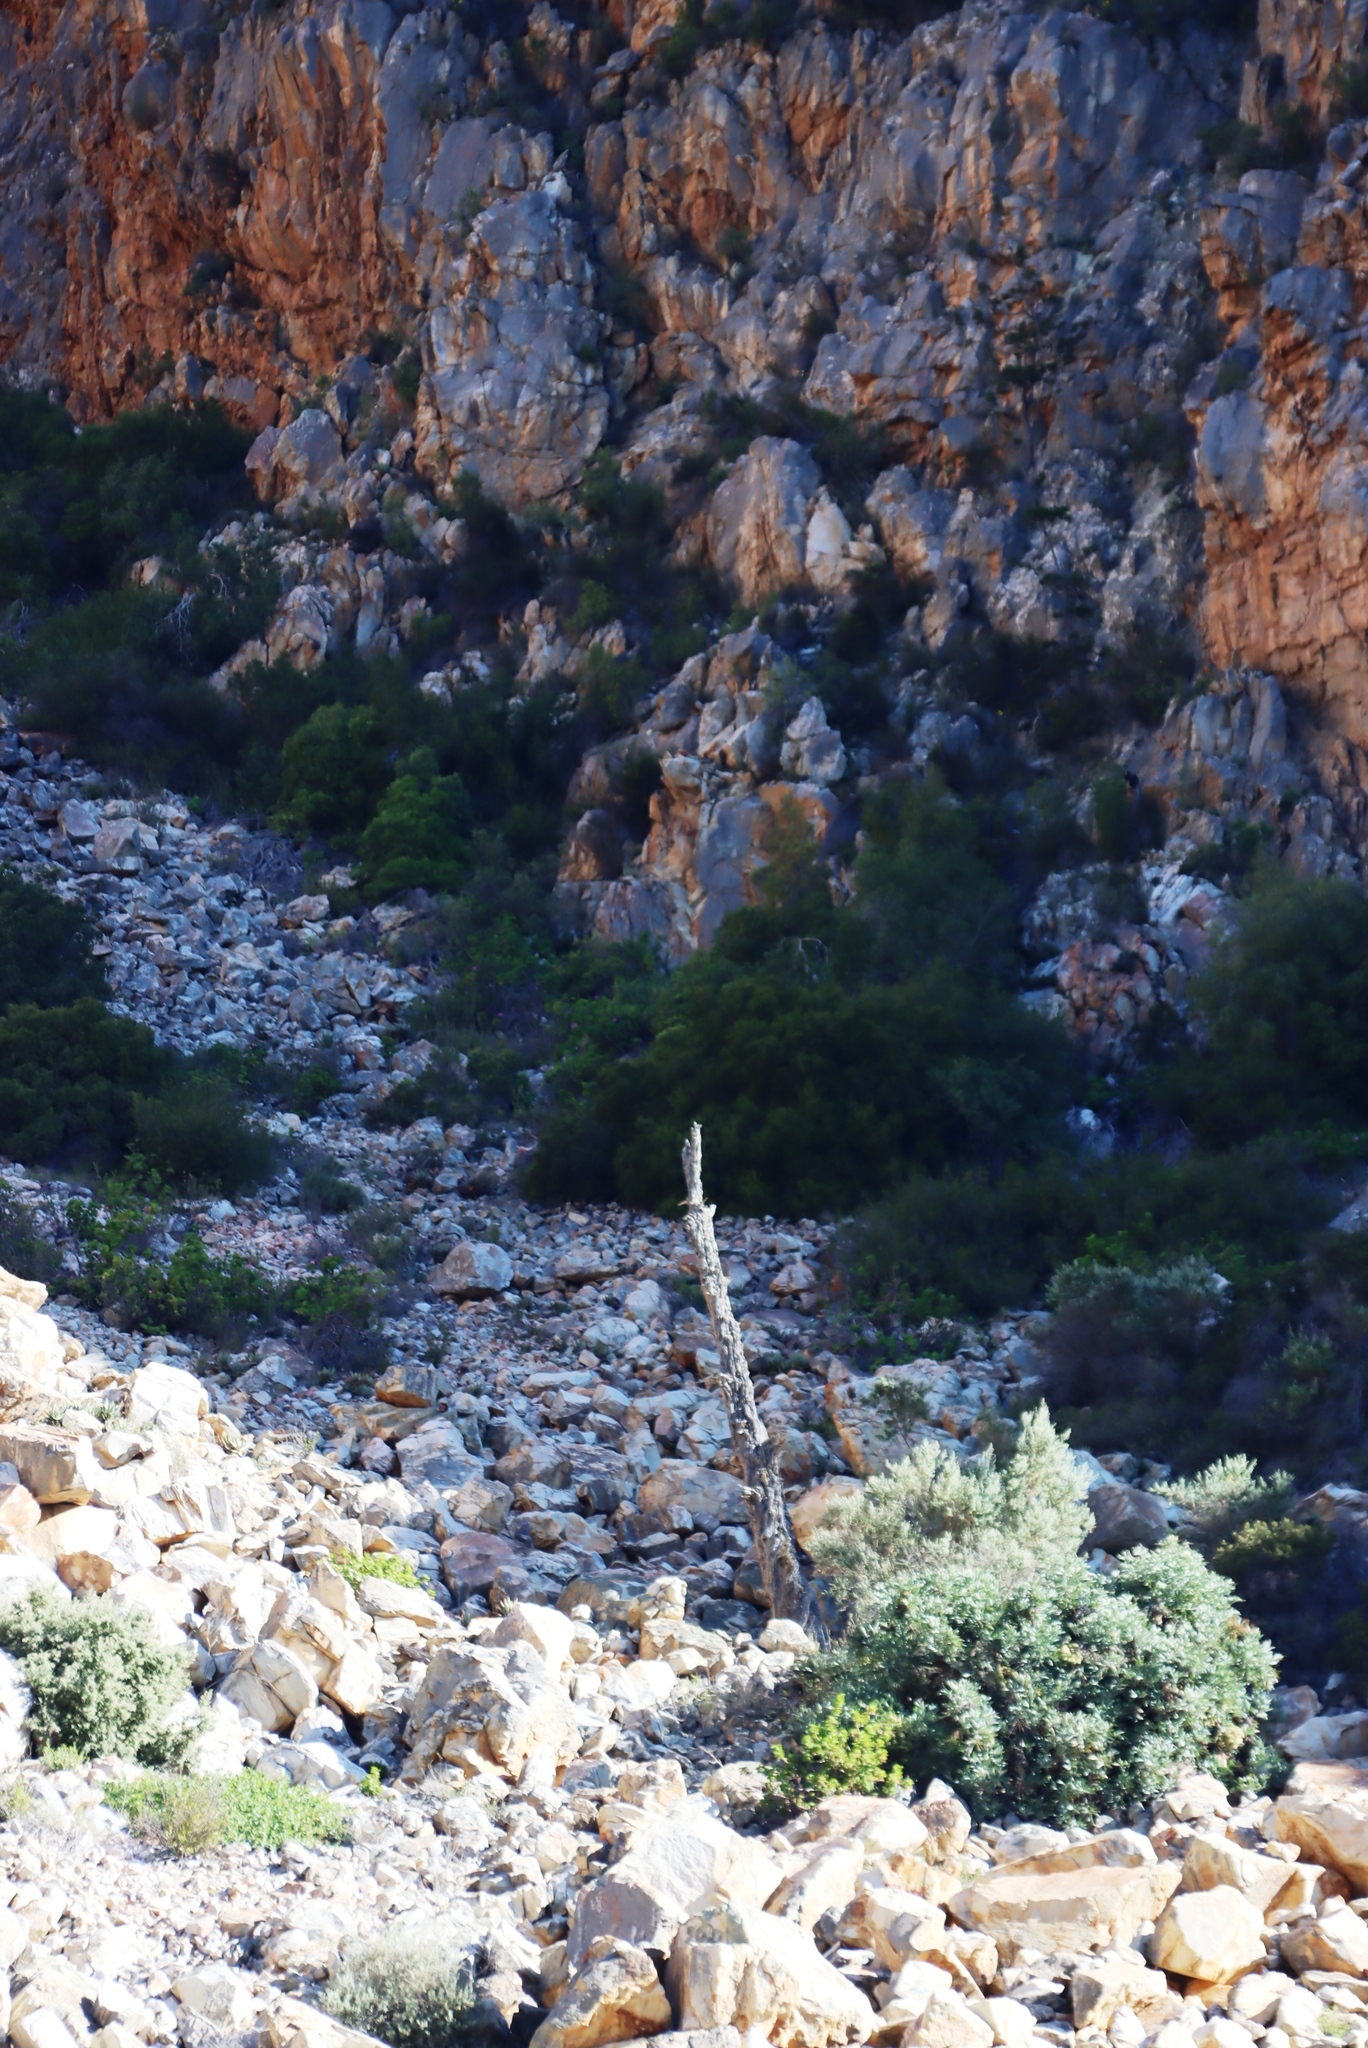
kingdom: Plantae
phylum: Tracheophyta
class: Pinopsida
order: Pinales
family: Cupressaceae
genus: Widdringtonia
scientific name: Widdringtonia schwarzii
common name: Baviaans cedar
